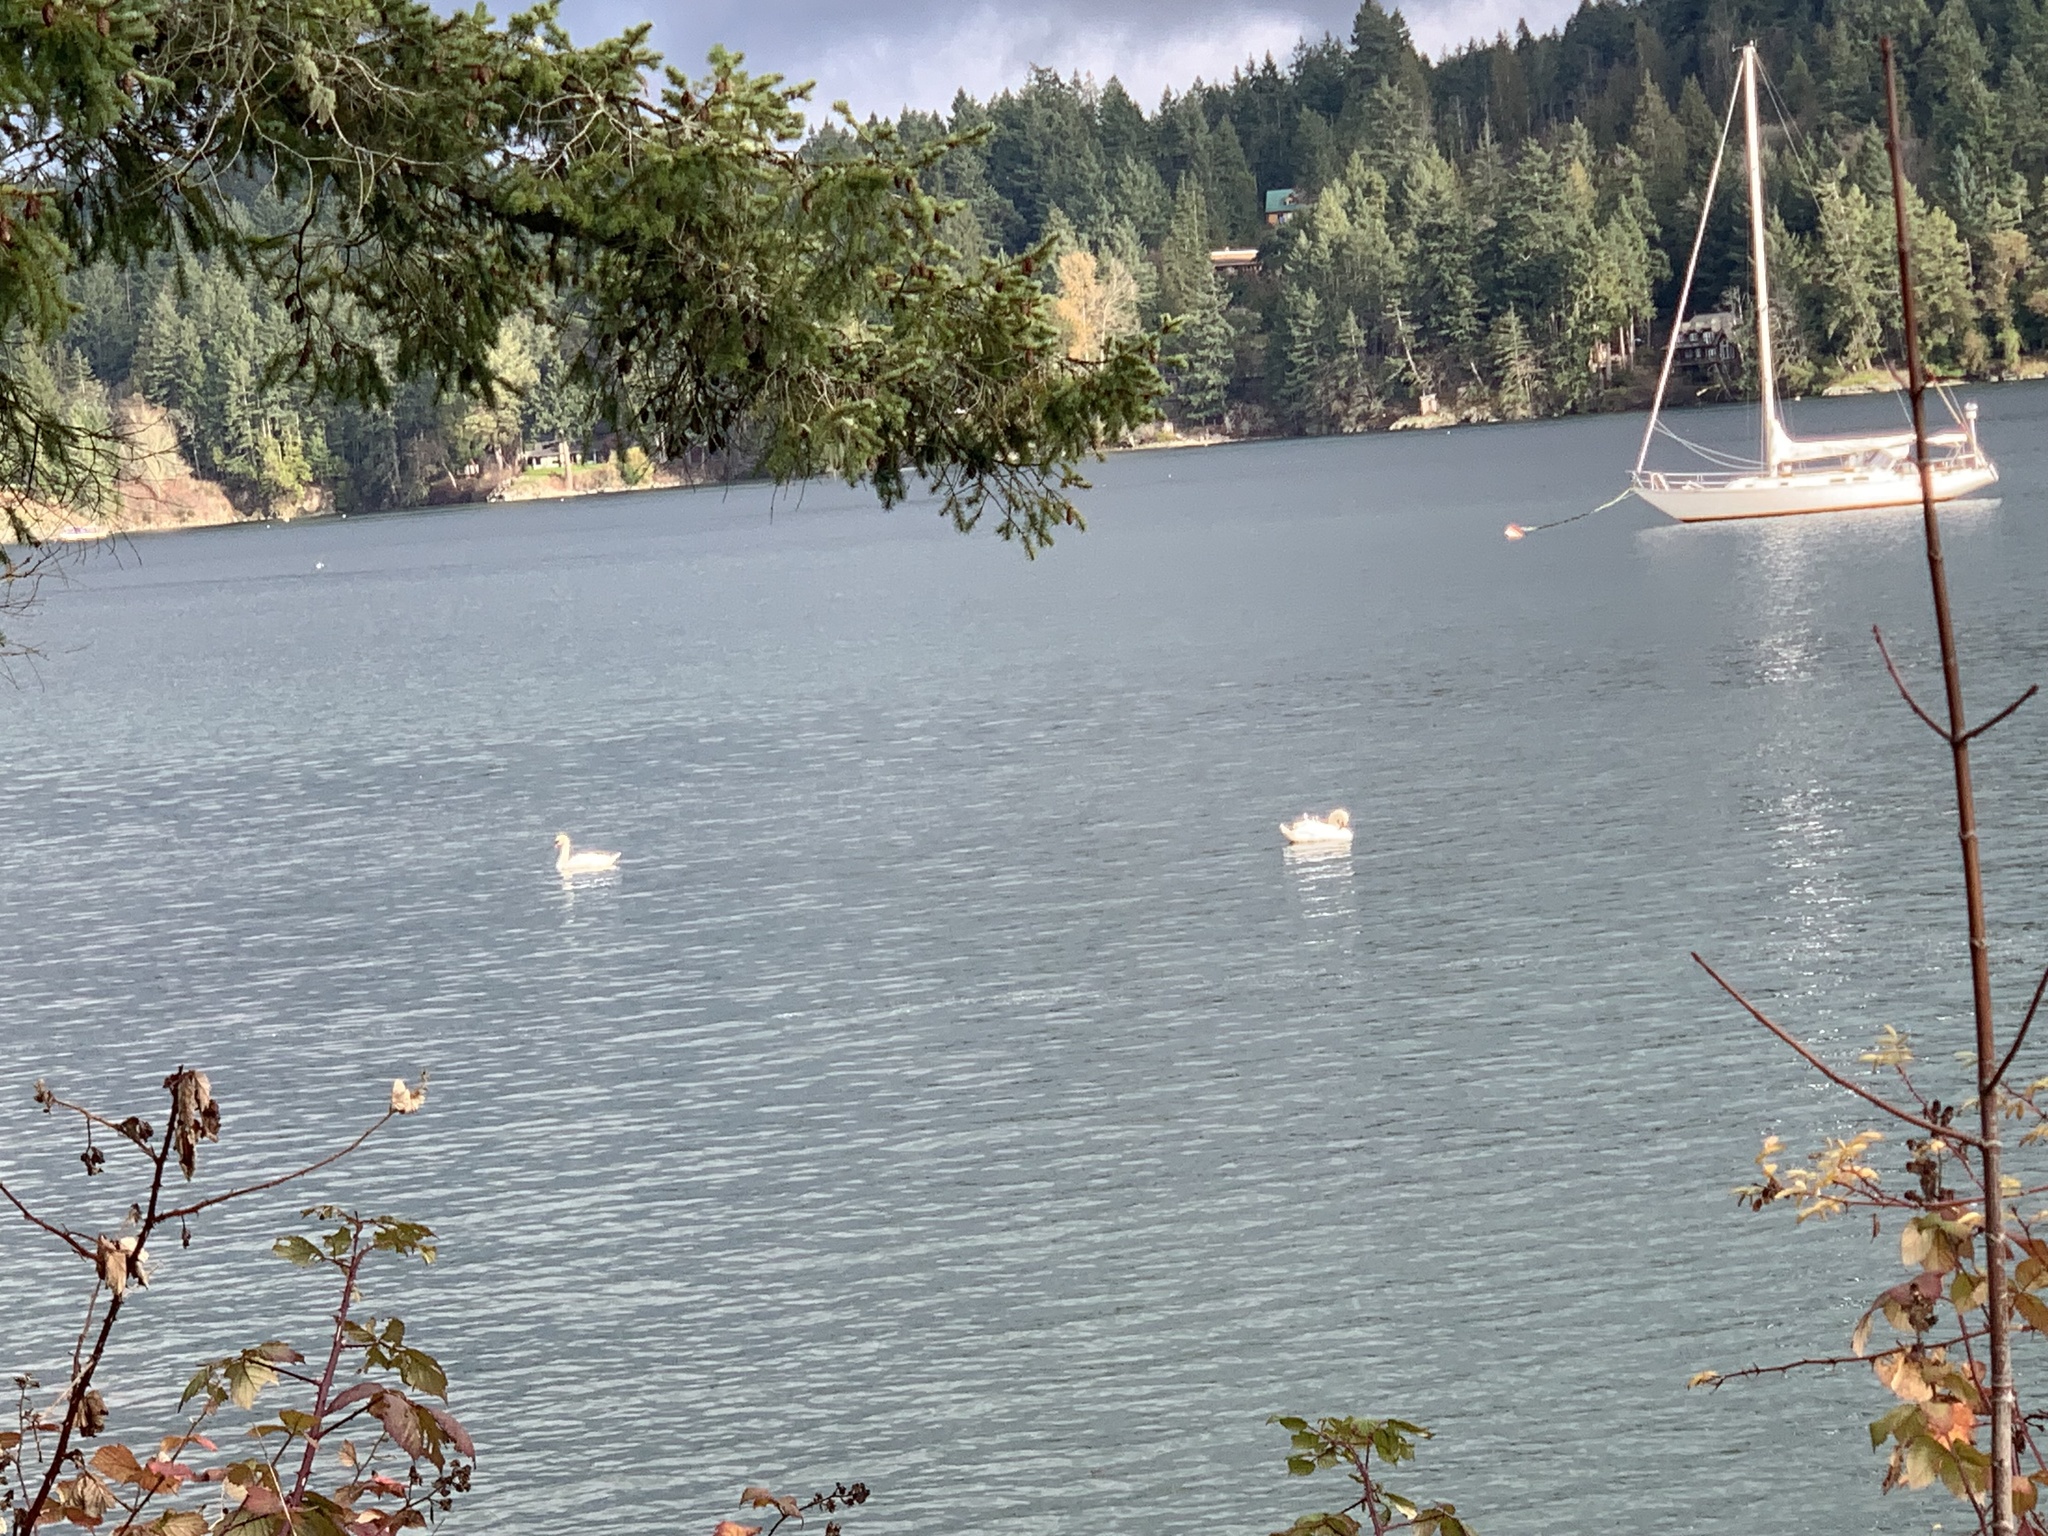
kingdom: Animalia
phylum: Chordata
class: Aves
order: Anseriformes
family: Anatidae
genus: Cygnus
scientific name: Cygnus olor
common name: Mute swan
